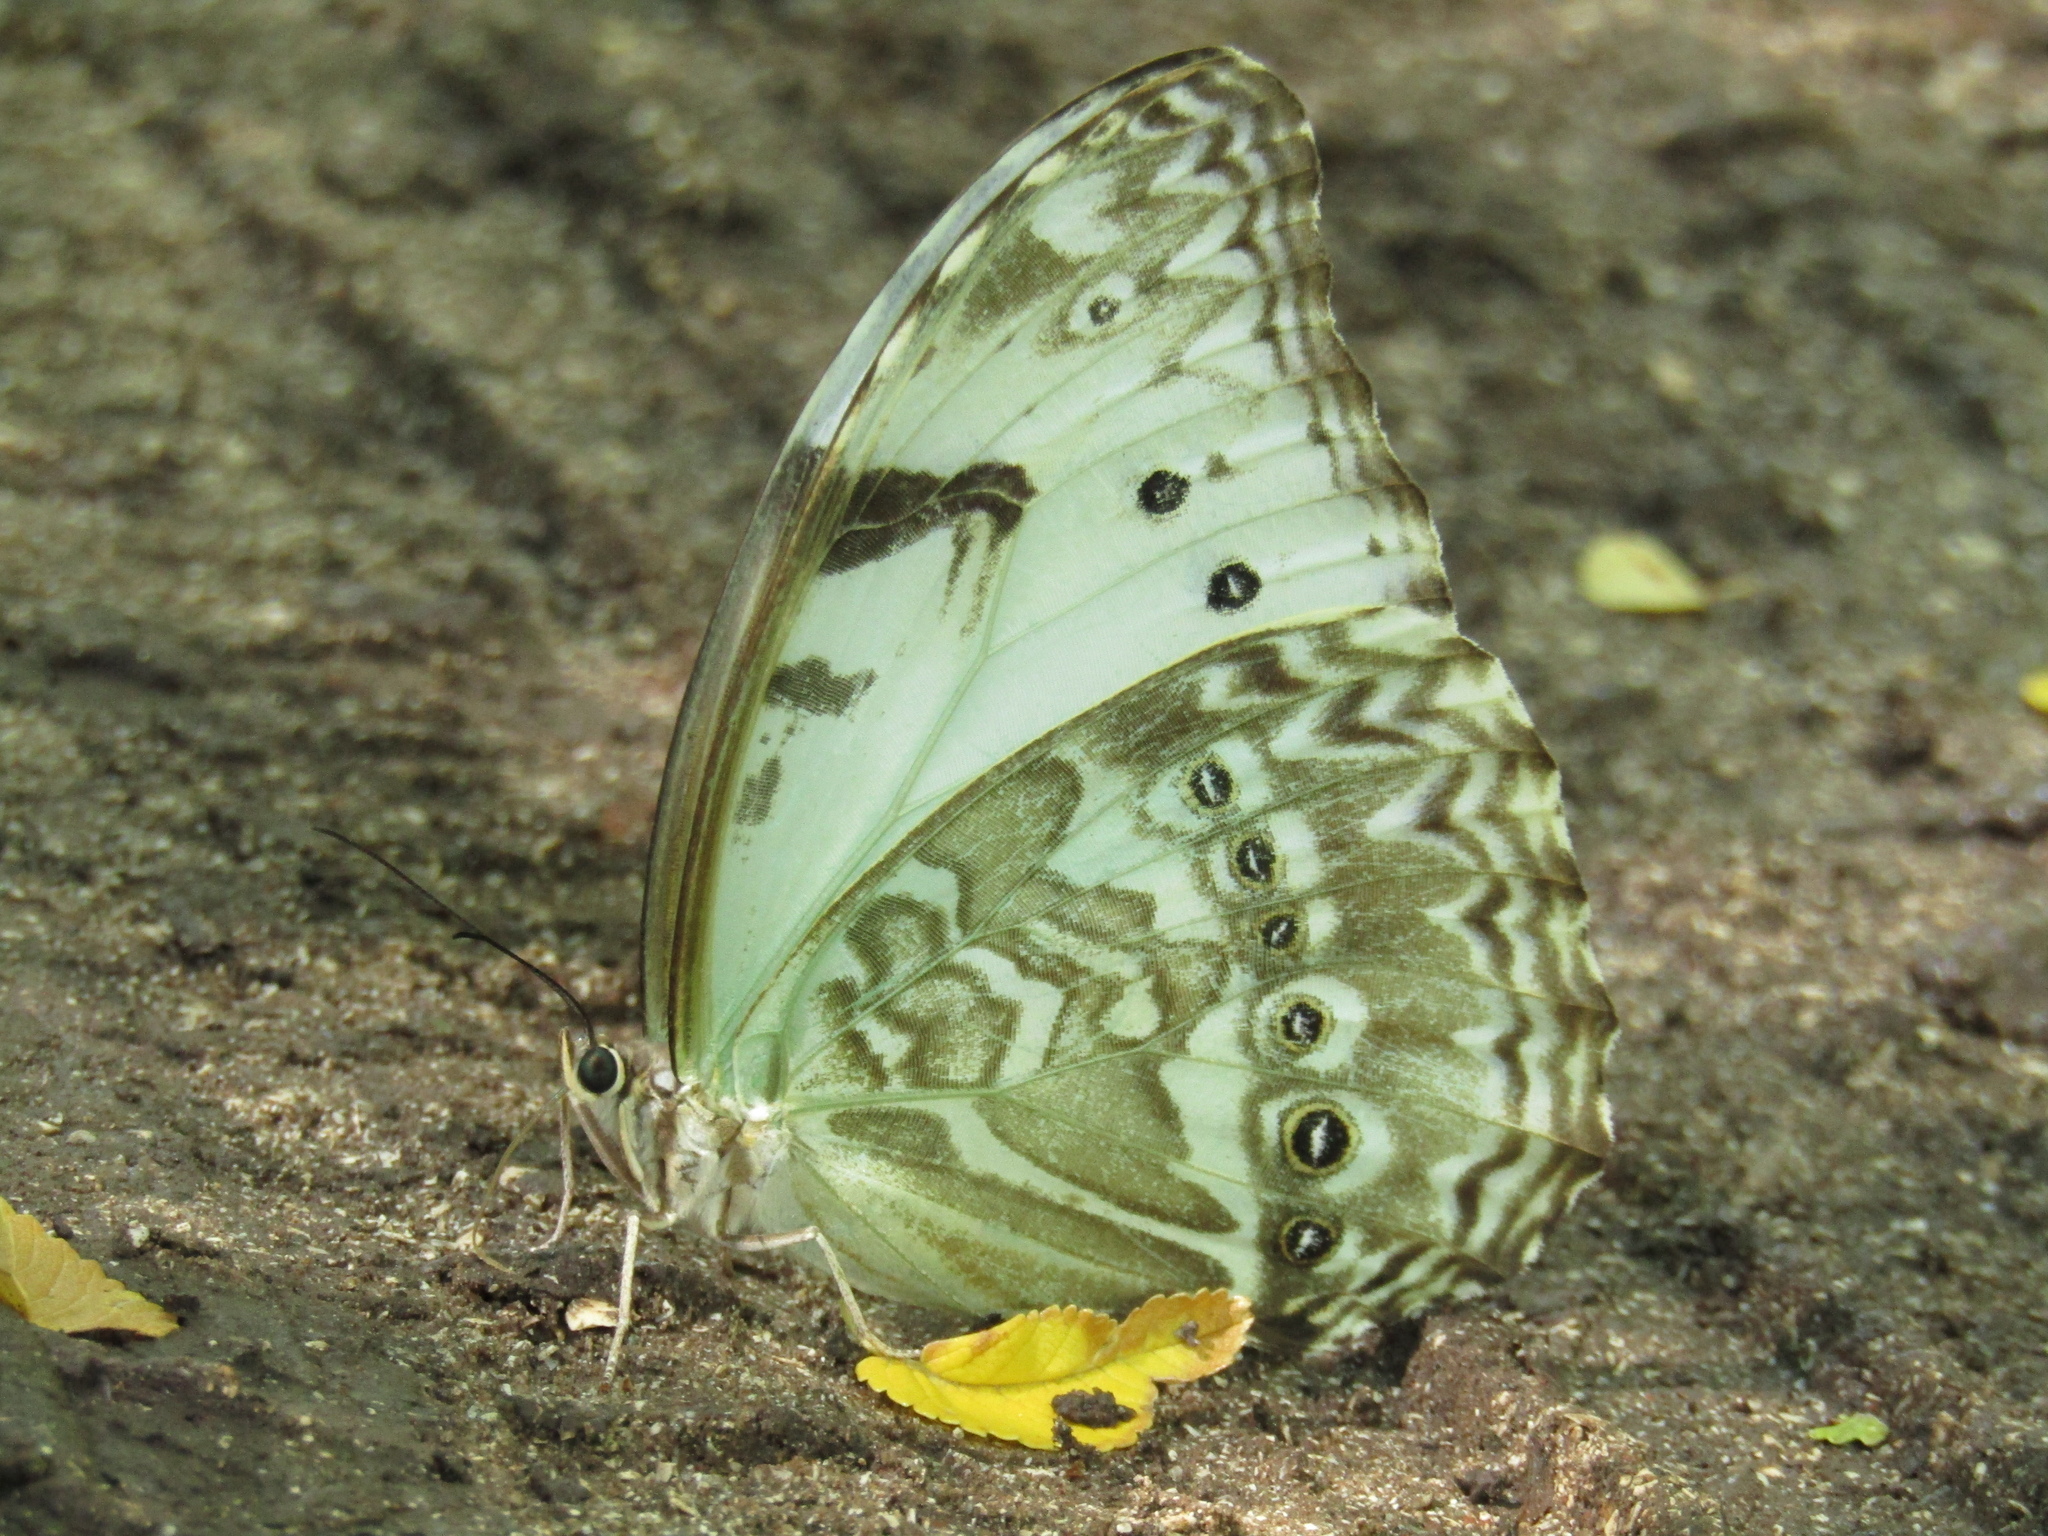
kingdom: Animalia
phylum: Arthropoda
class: Insecta
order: Lepidoptera
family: Nymphalidae
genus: Morpho
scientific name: Morpho epistrophus
